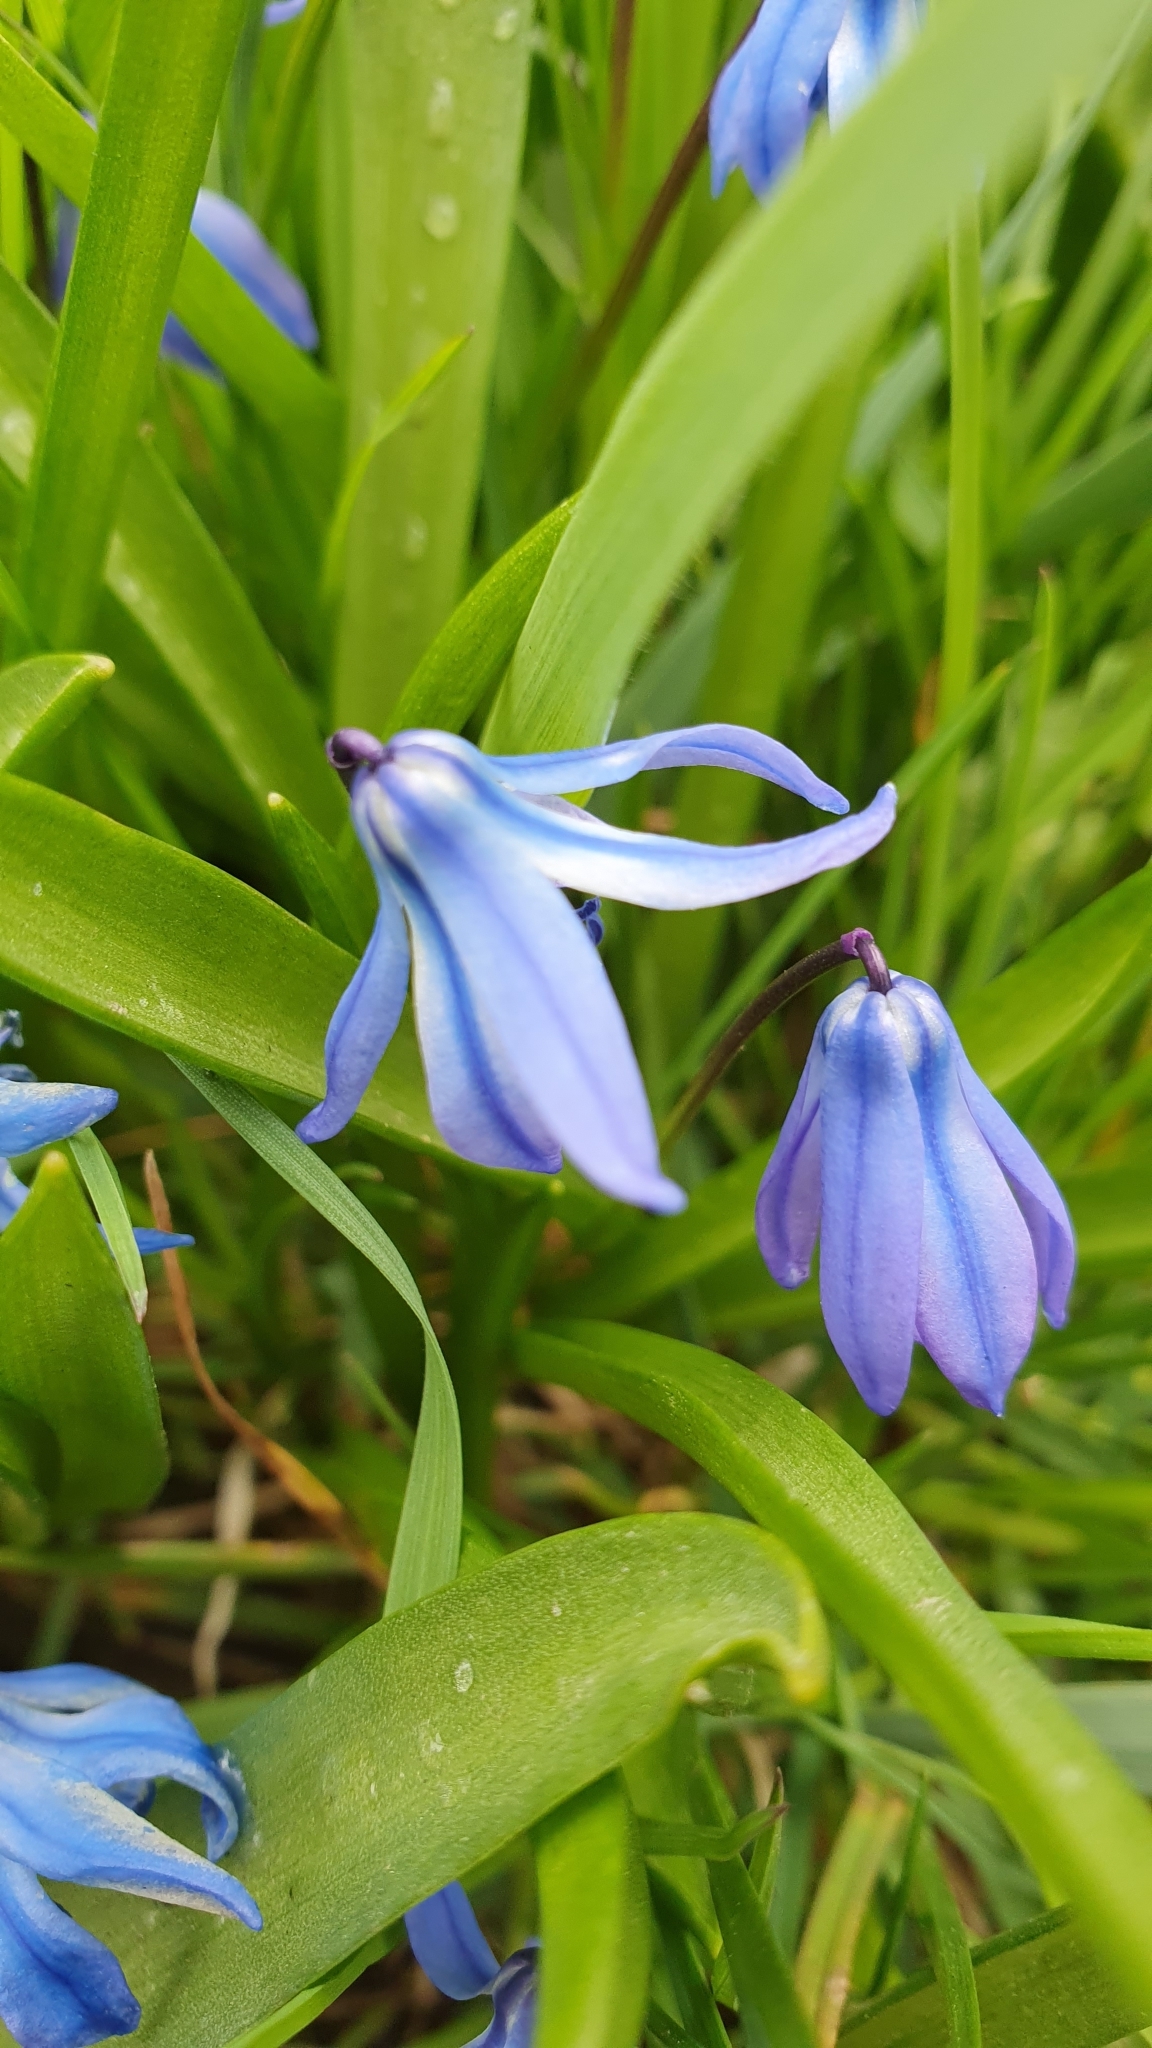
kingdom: Plantae
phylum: Tracheophyta
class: Liliopsida
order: Asparagales
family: Asparagaceae
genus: Scilla
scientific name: Scilla siberica
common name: Siberian squill
